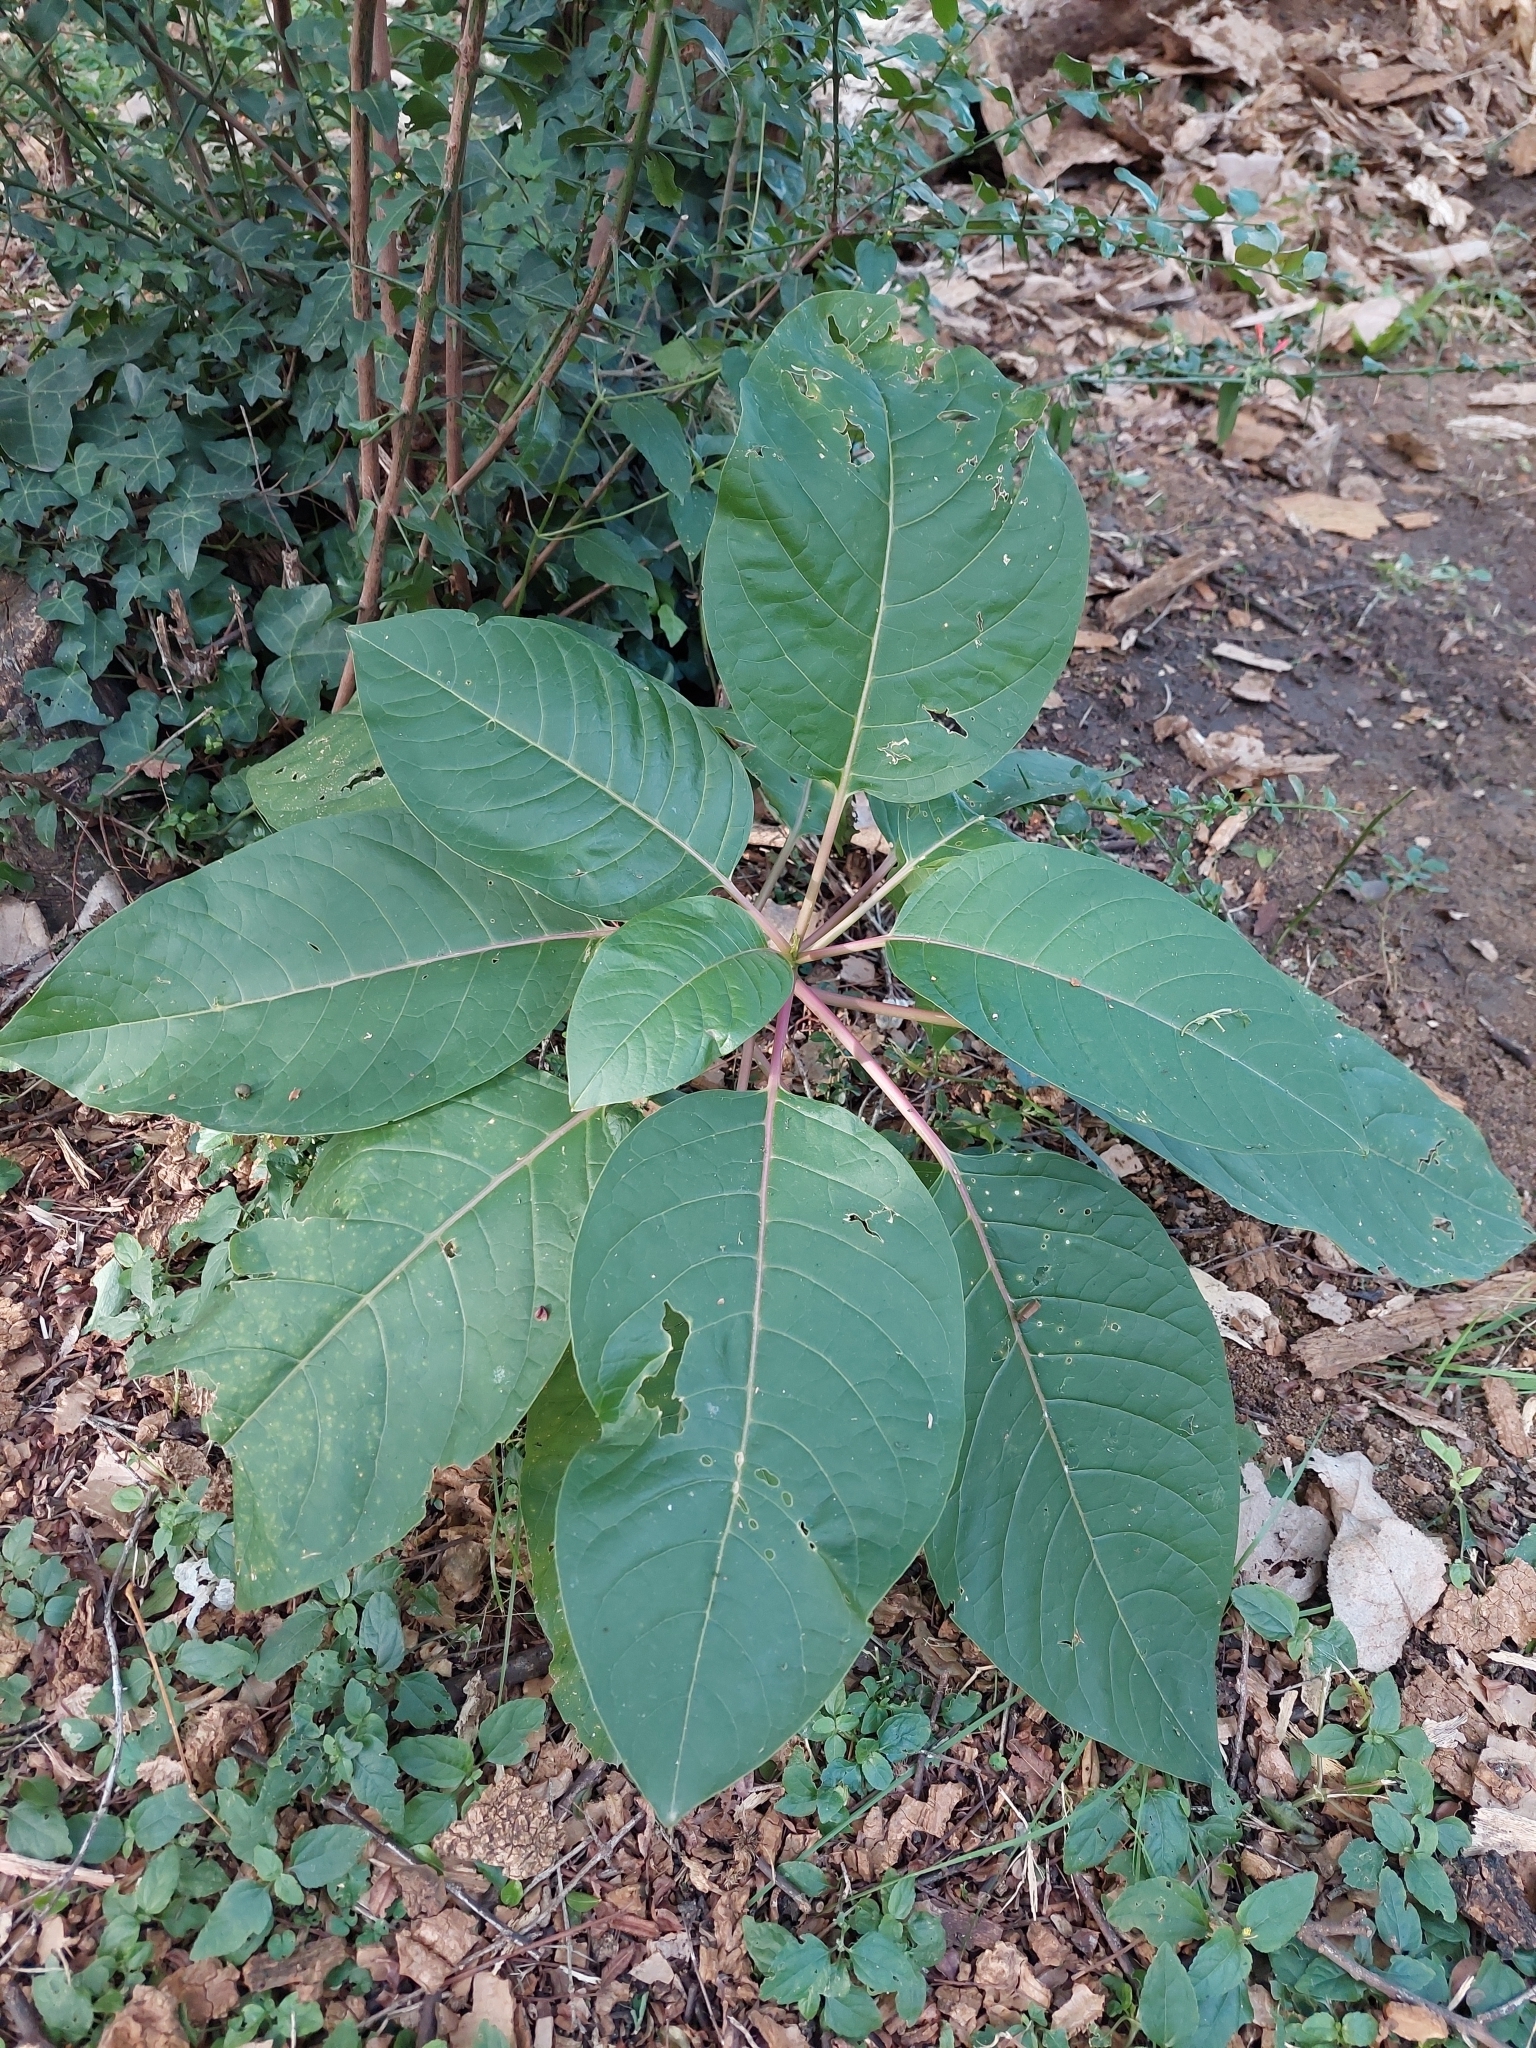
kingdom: Plantae
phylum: Tracheophyta
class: Magnoliopsida
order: Caryophyllales
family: Phytolaccaceae
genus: Phytolacca
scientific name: Phytolacca dioica
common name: Pokeweed
